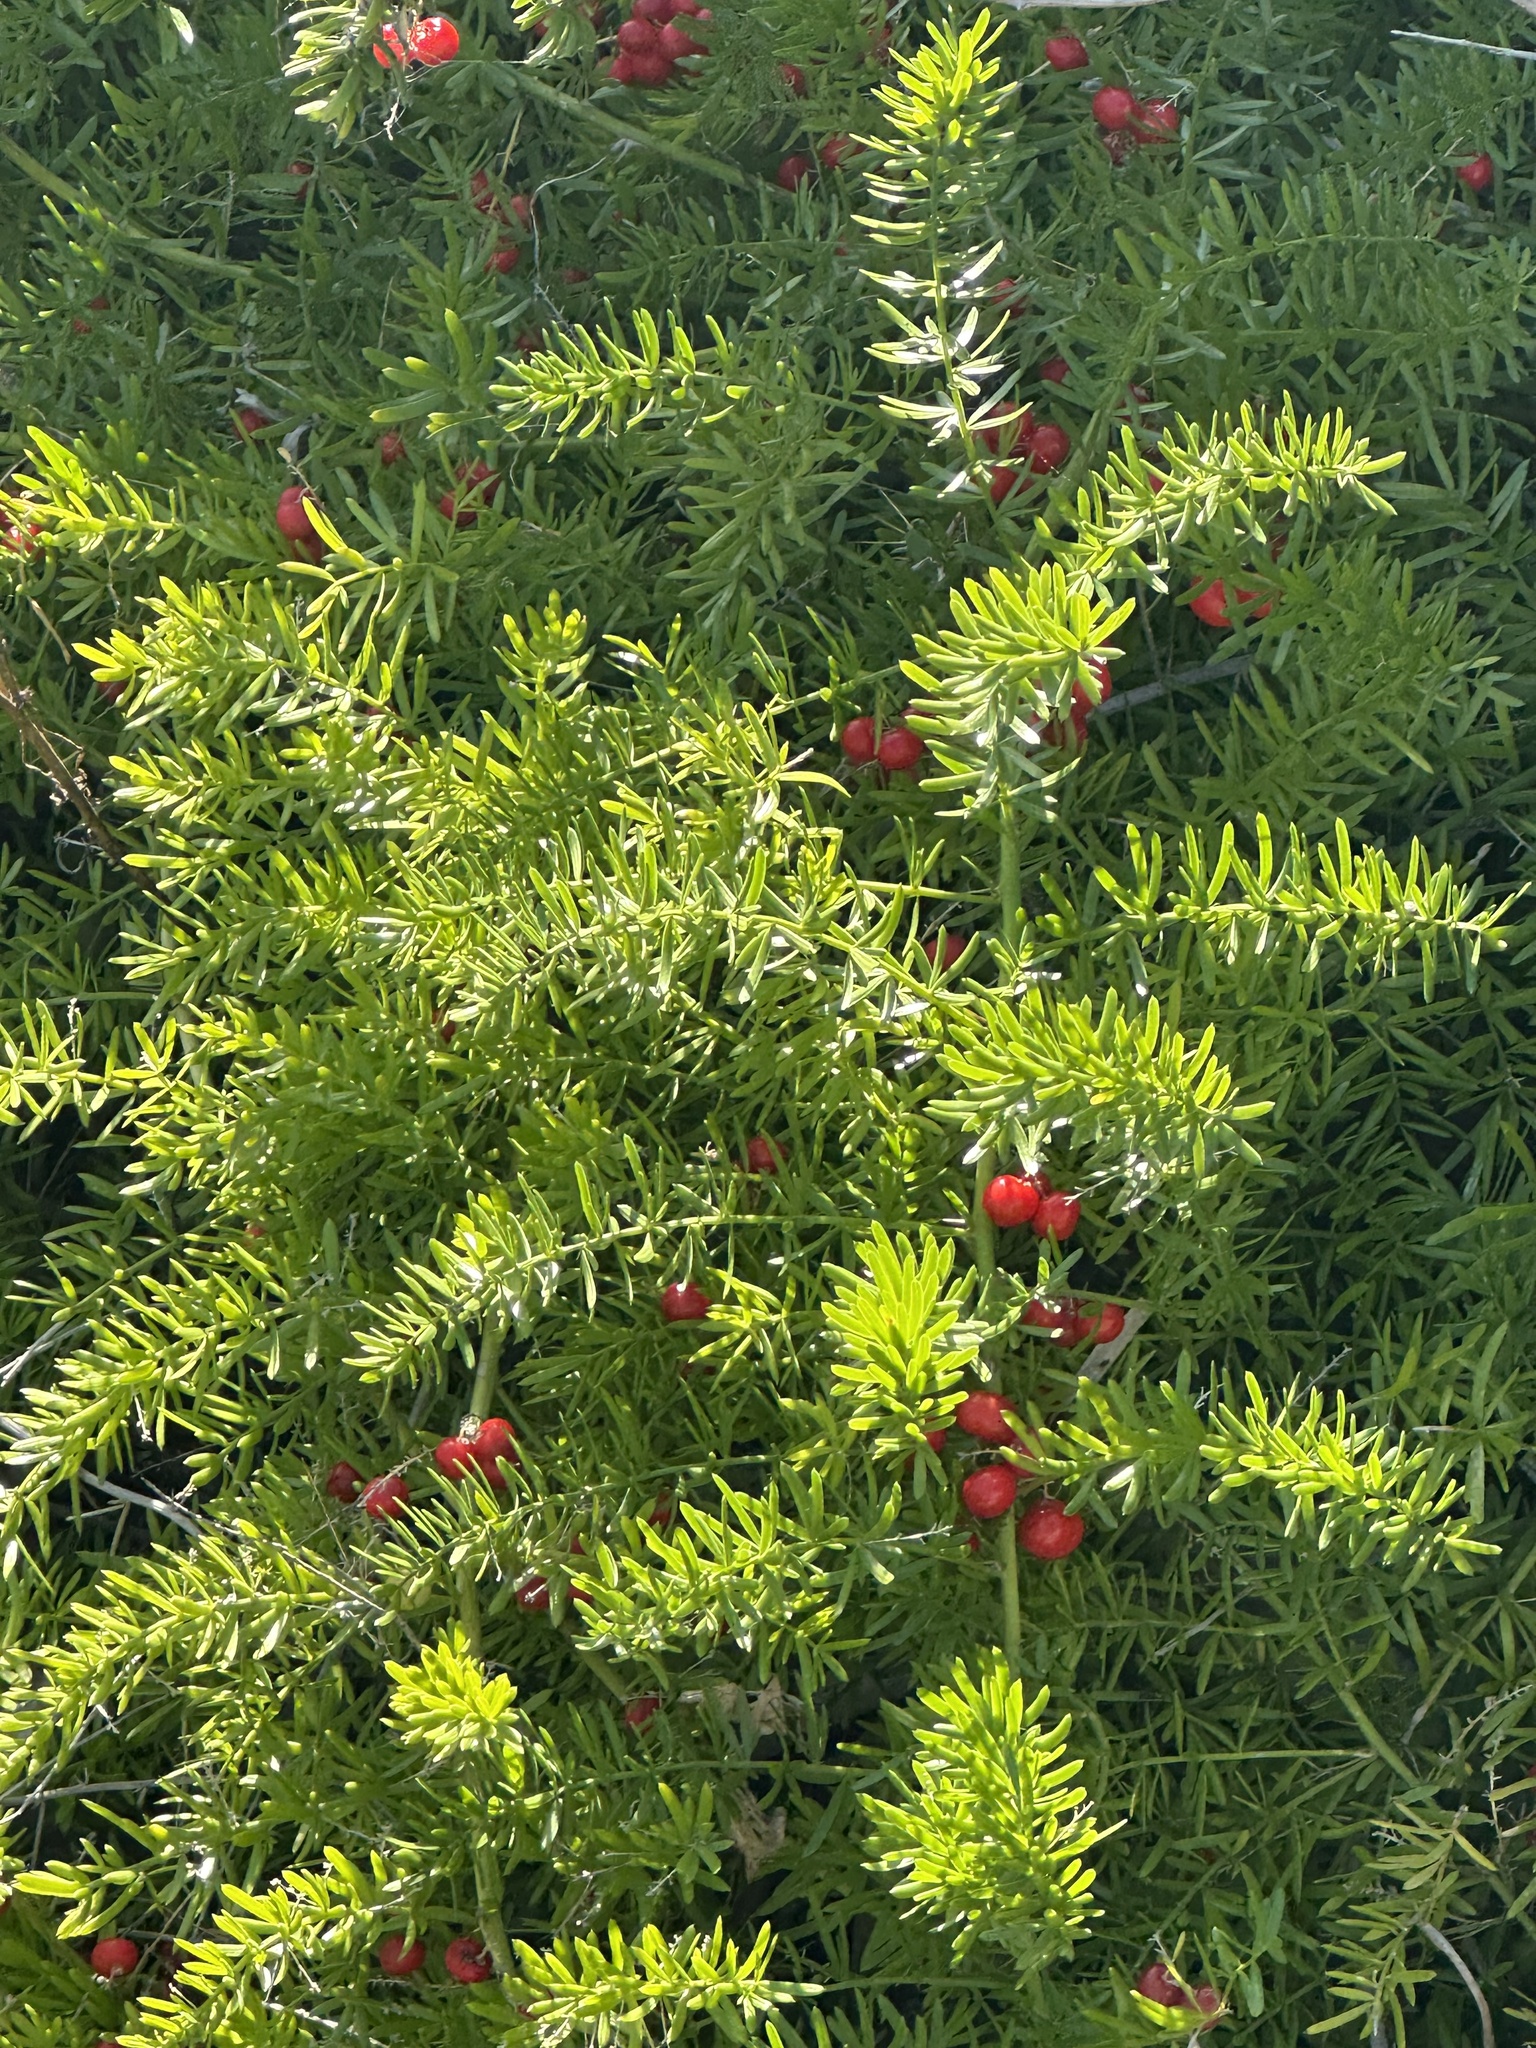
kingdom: Plantae
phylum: Tracheophyta
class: Liliopsida
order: Asparagales
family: Asparagaceae
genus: Asparagus
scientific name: Asparagus aethiopicus
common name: Sprenger's asparagus fern
